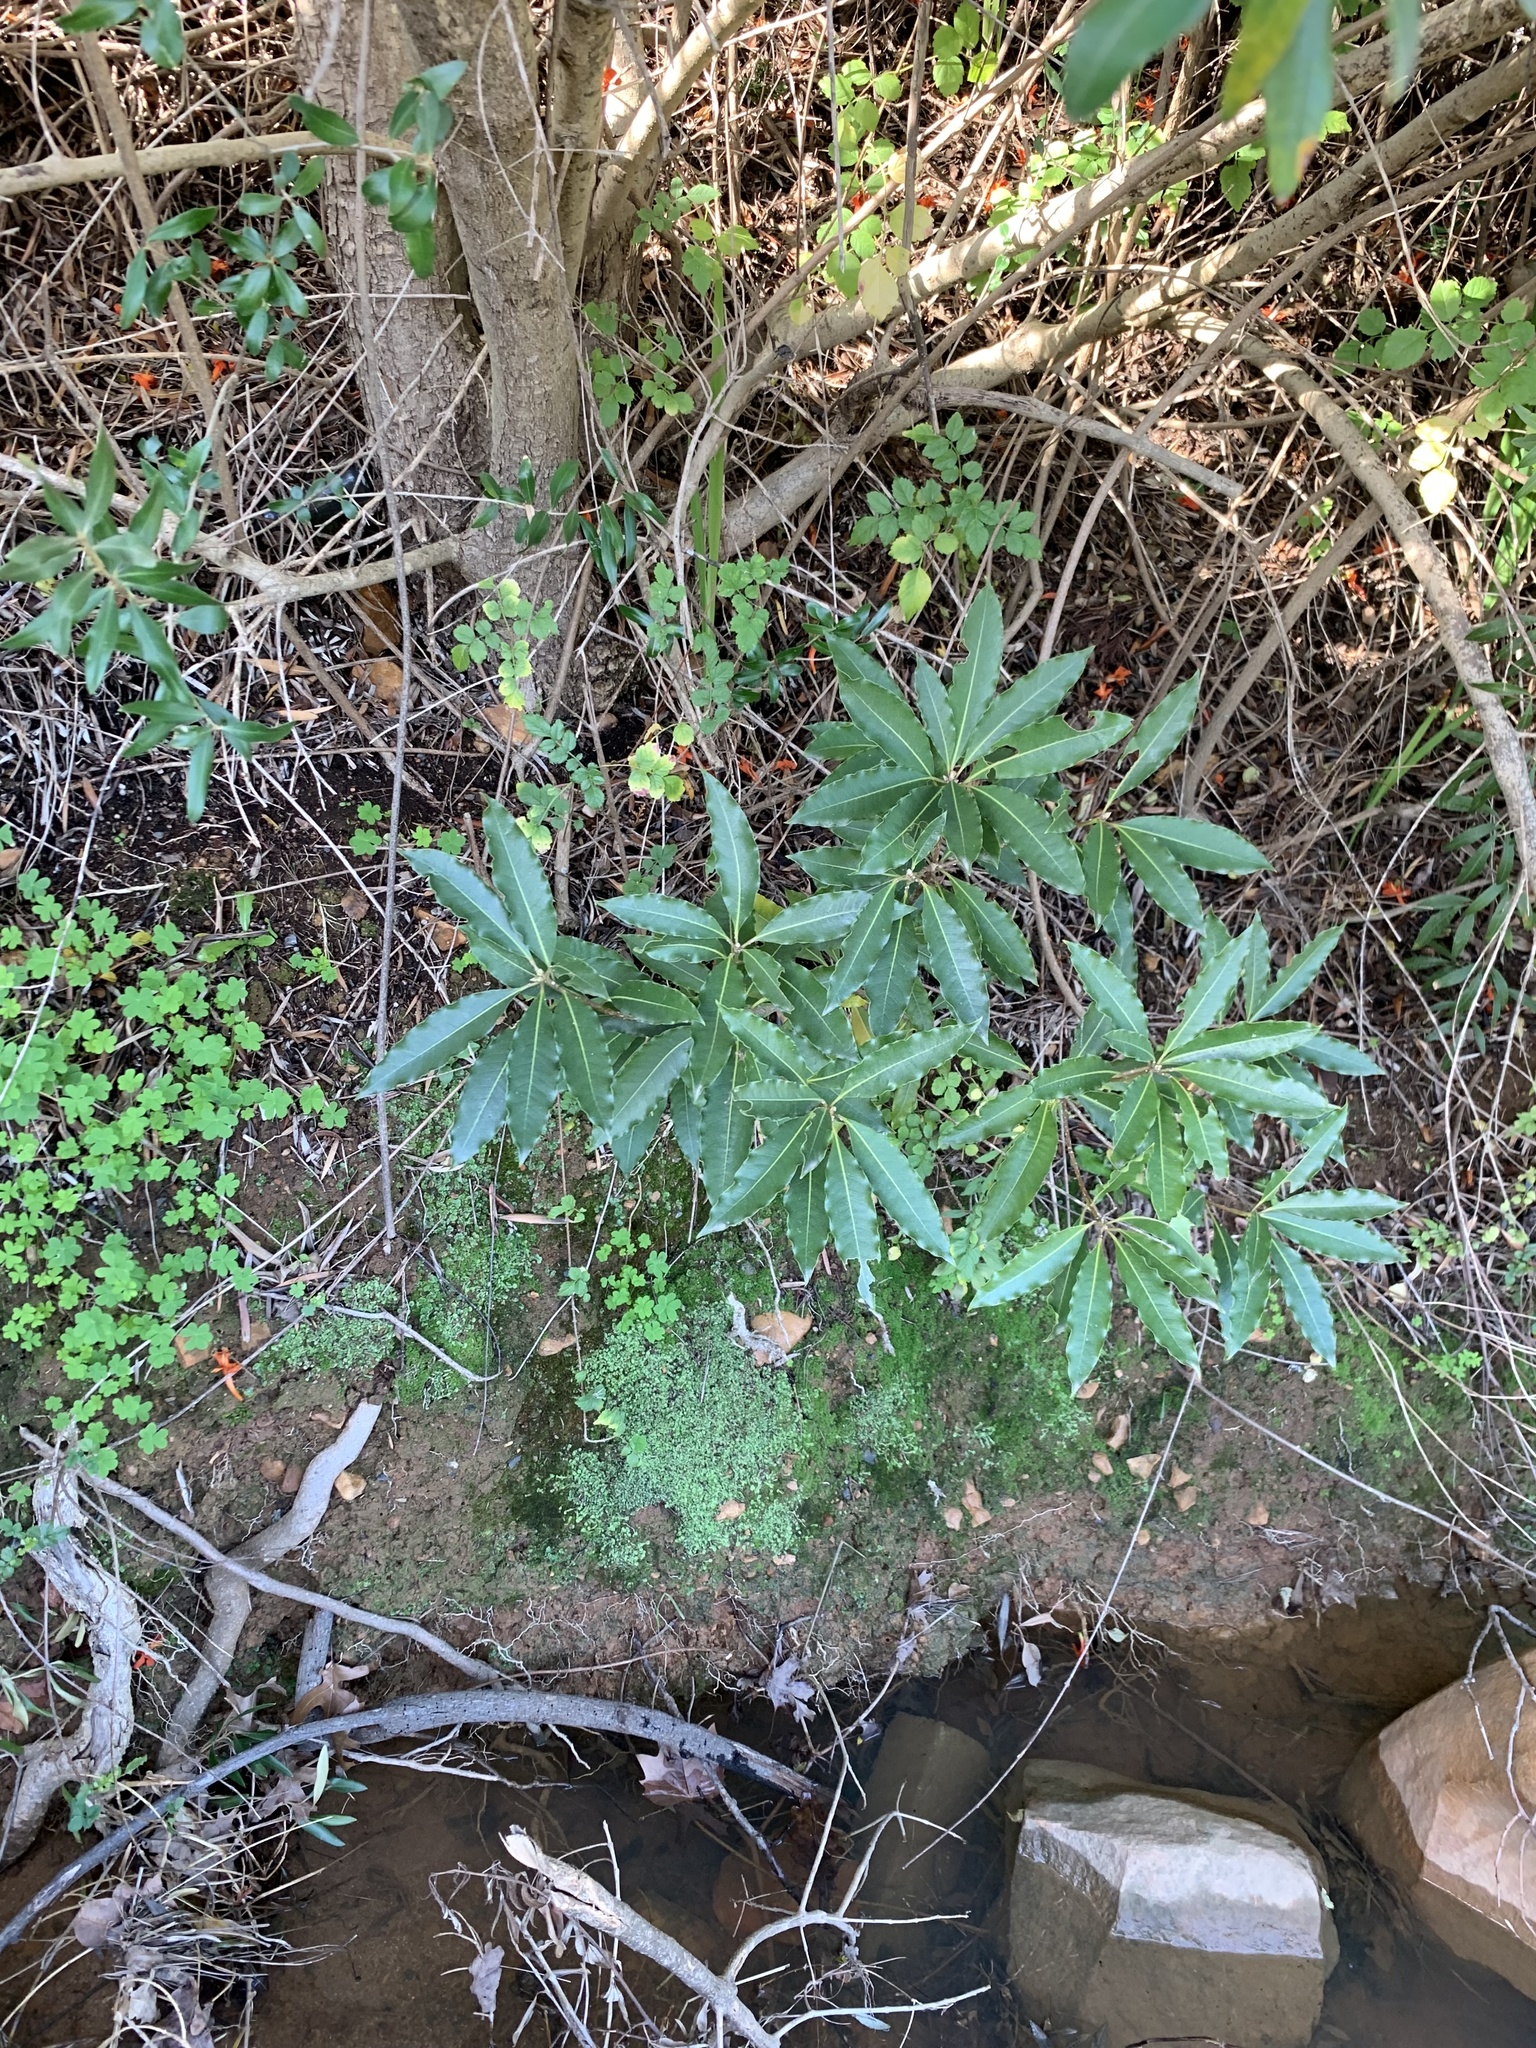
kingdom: Plantae
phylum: Tracheophyta
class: Magnoliopsida
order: Apiales
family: Pittosporaceae
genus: Pittosporum
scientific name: Pittosporum undulatum
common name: Australian cheesewood
